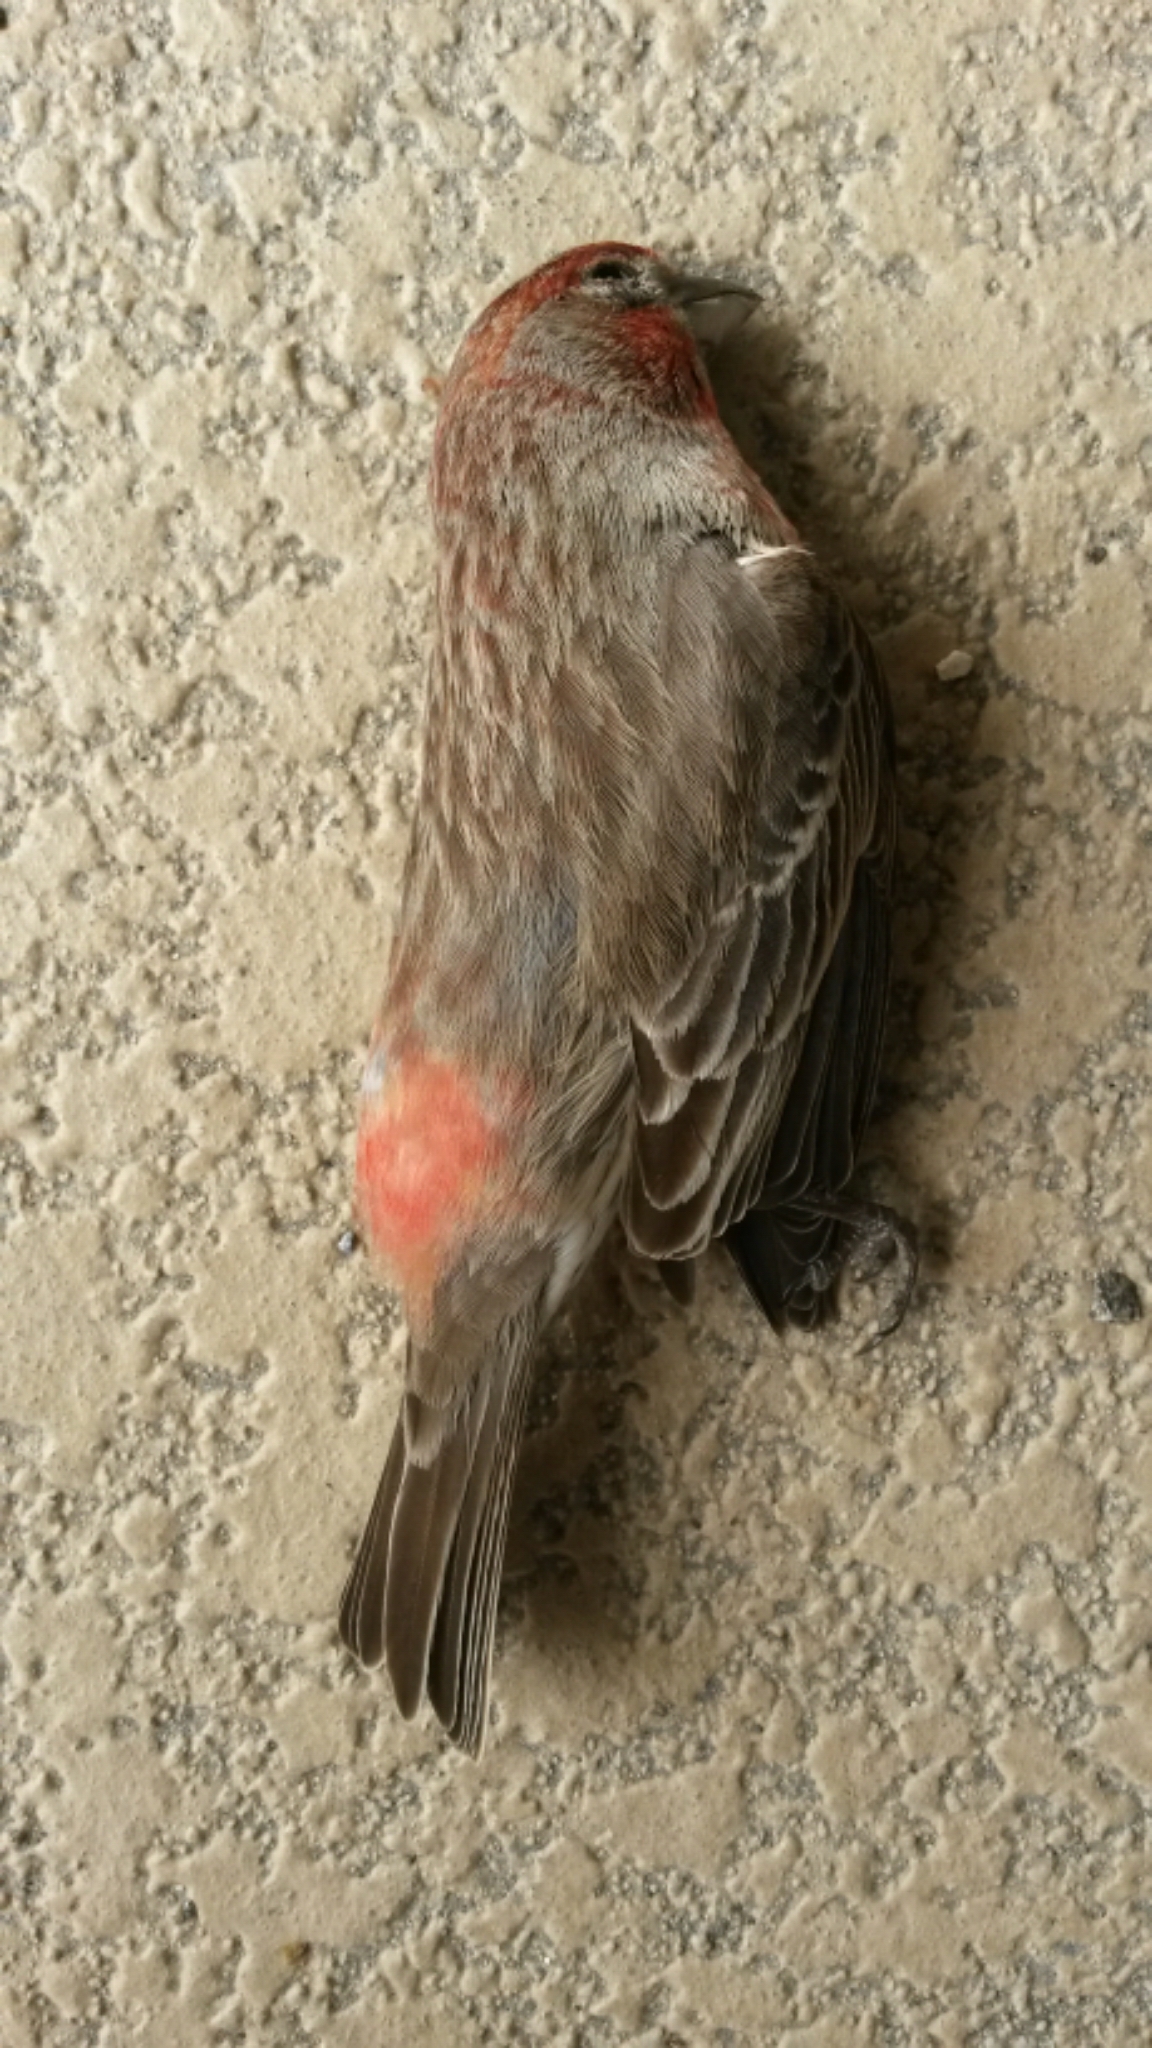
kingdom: Animalia
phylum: Chordata
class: Aves
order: Passeriformes
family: Fringillidae
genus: Haemorhous
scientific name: Haemorhous mexicanus
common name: House finch
